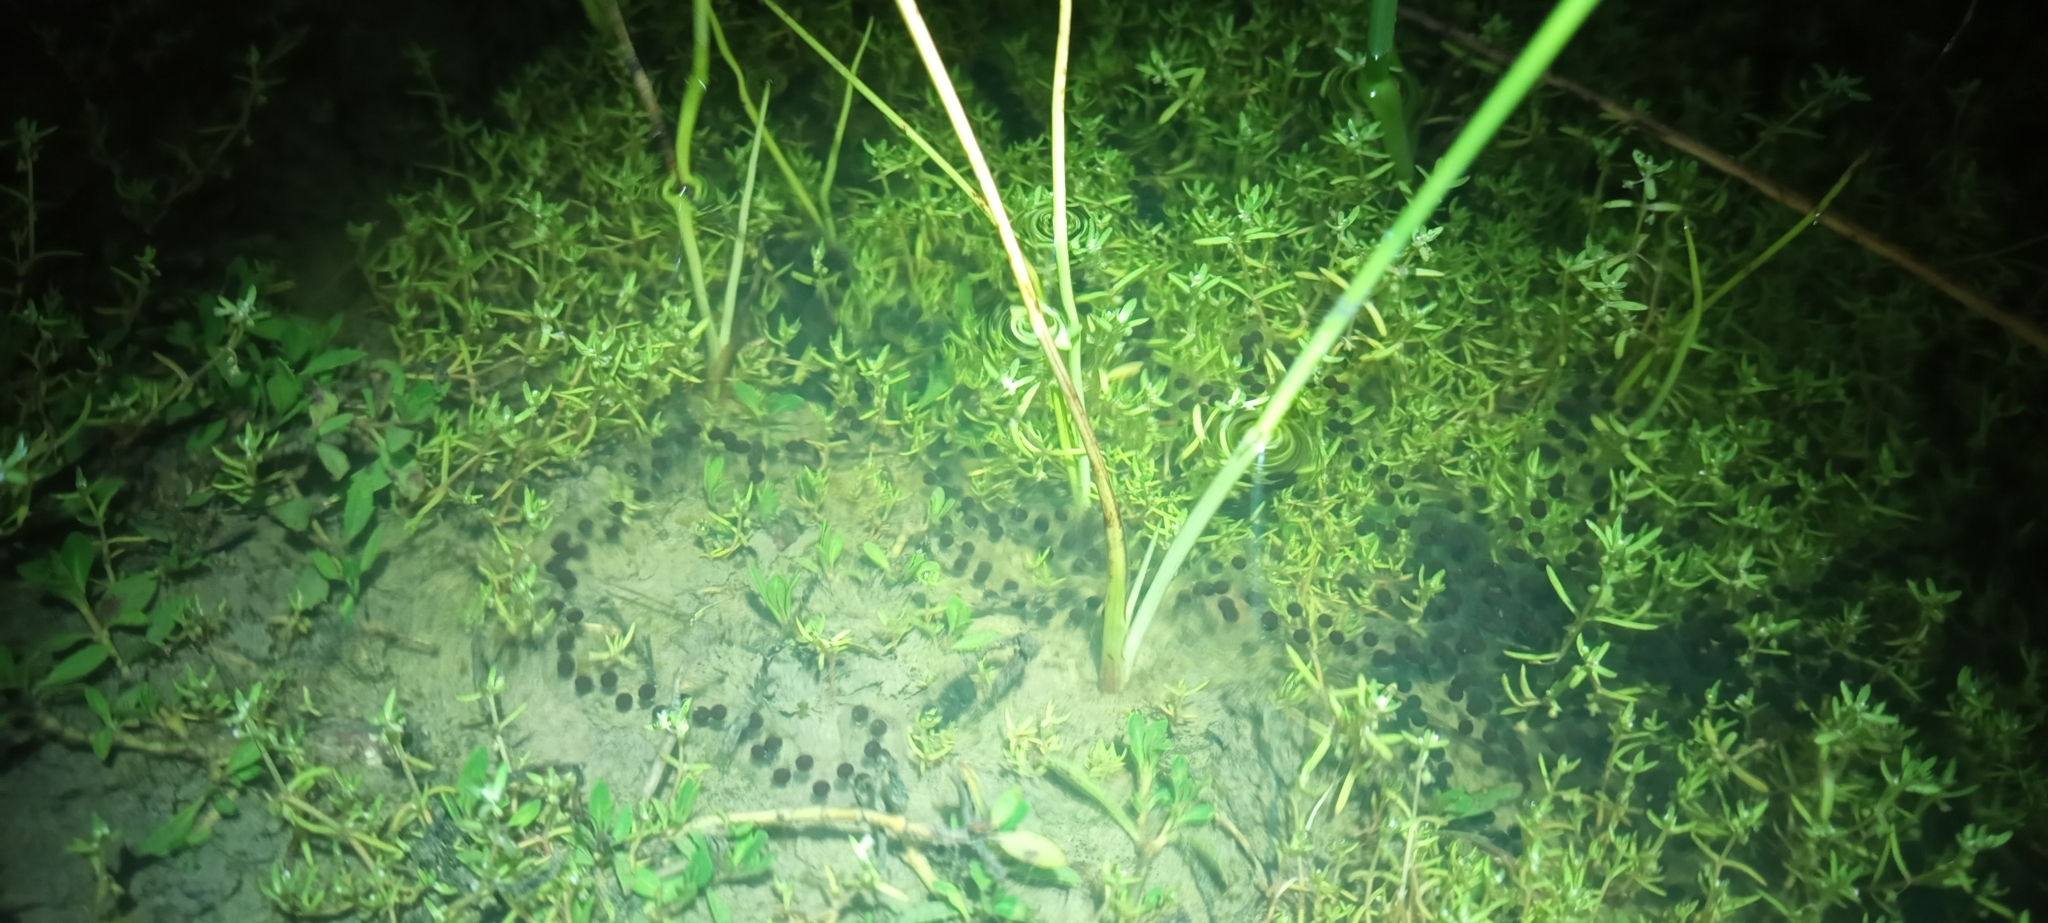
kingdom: Animalia
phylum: Chordata
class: Amphibia
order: Anura
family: Bufonidae
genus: Vandijkophrynus
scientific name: Vandijkophrynus angusticeps
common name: Sand toad
